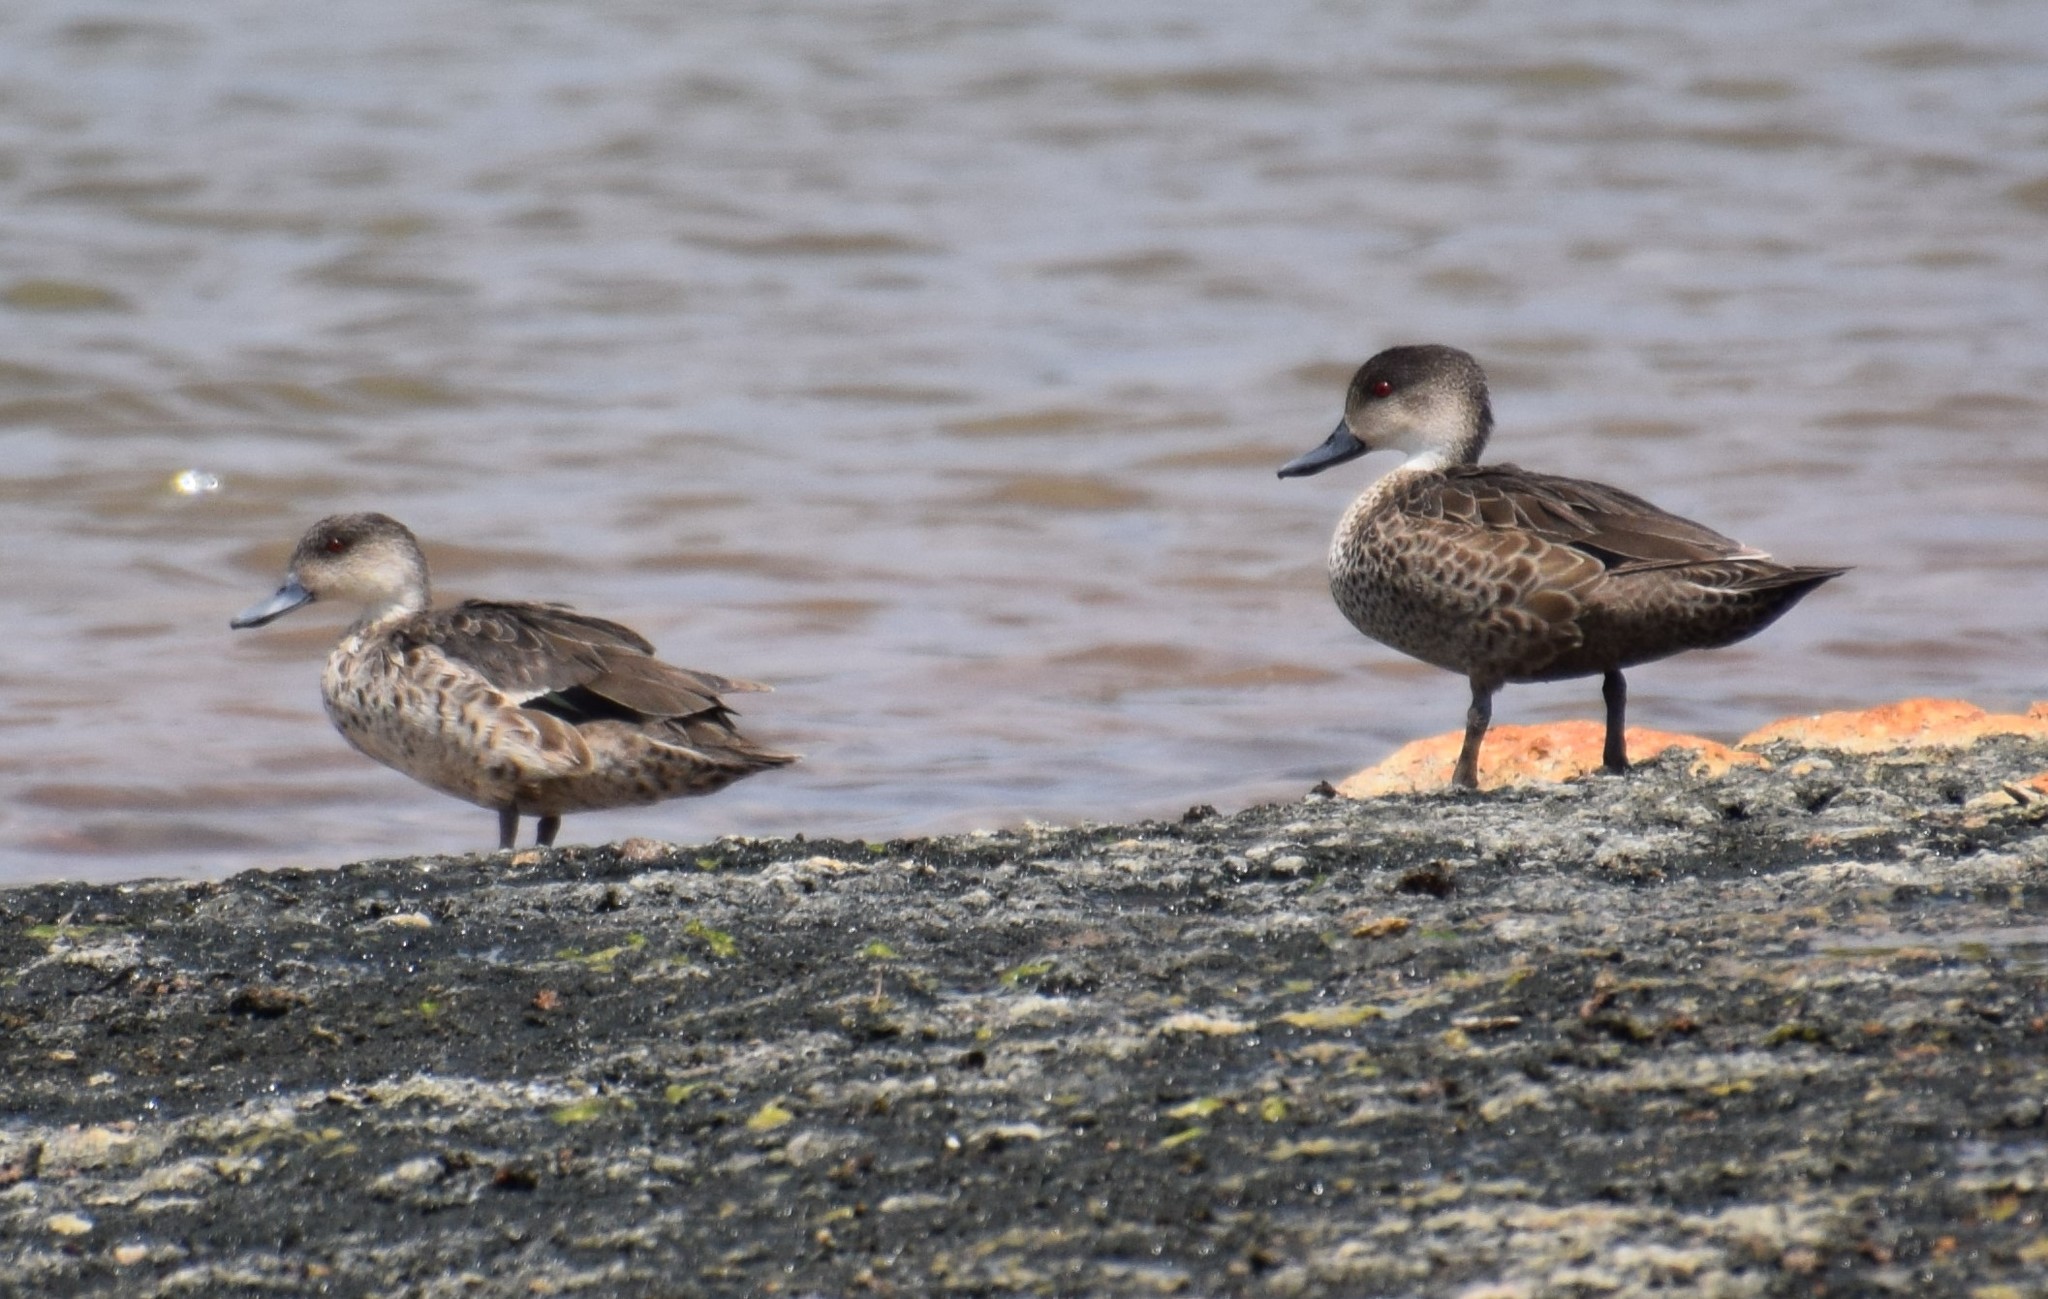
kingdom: Animalia
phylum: Chordata
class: Aves
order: Anseriformes
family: Anatidae
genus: Anas
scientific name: Anas gracilis
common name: Grey teal
